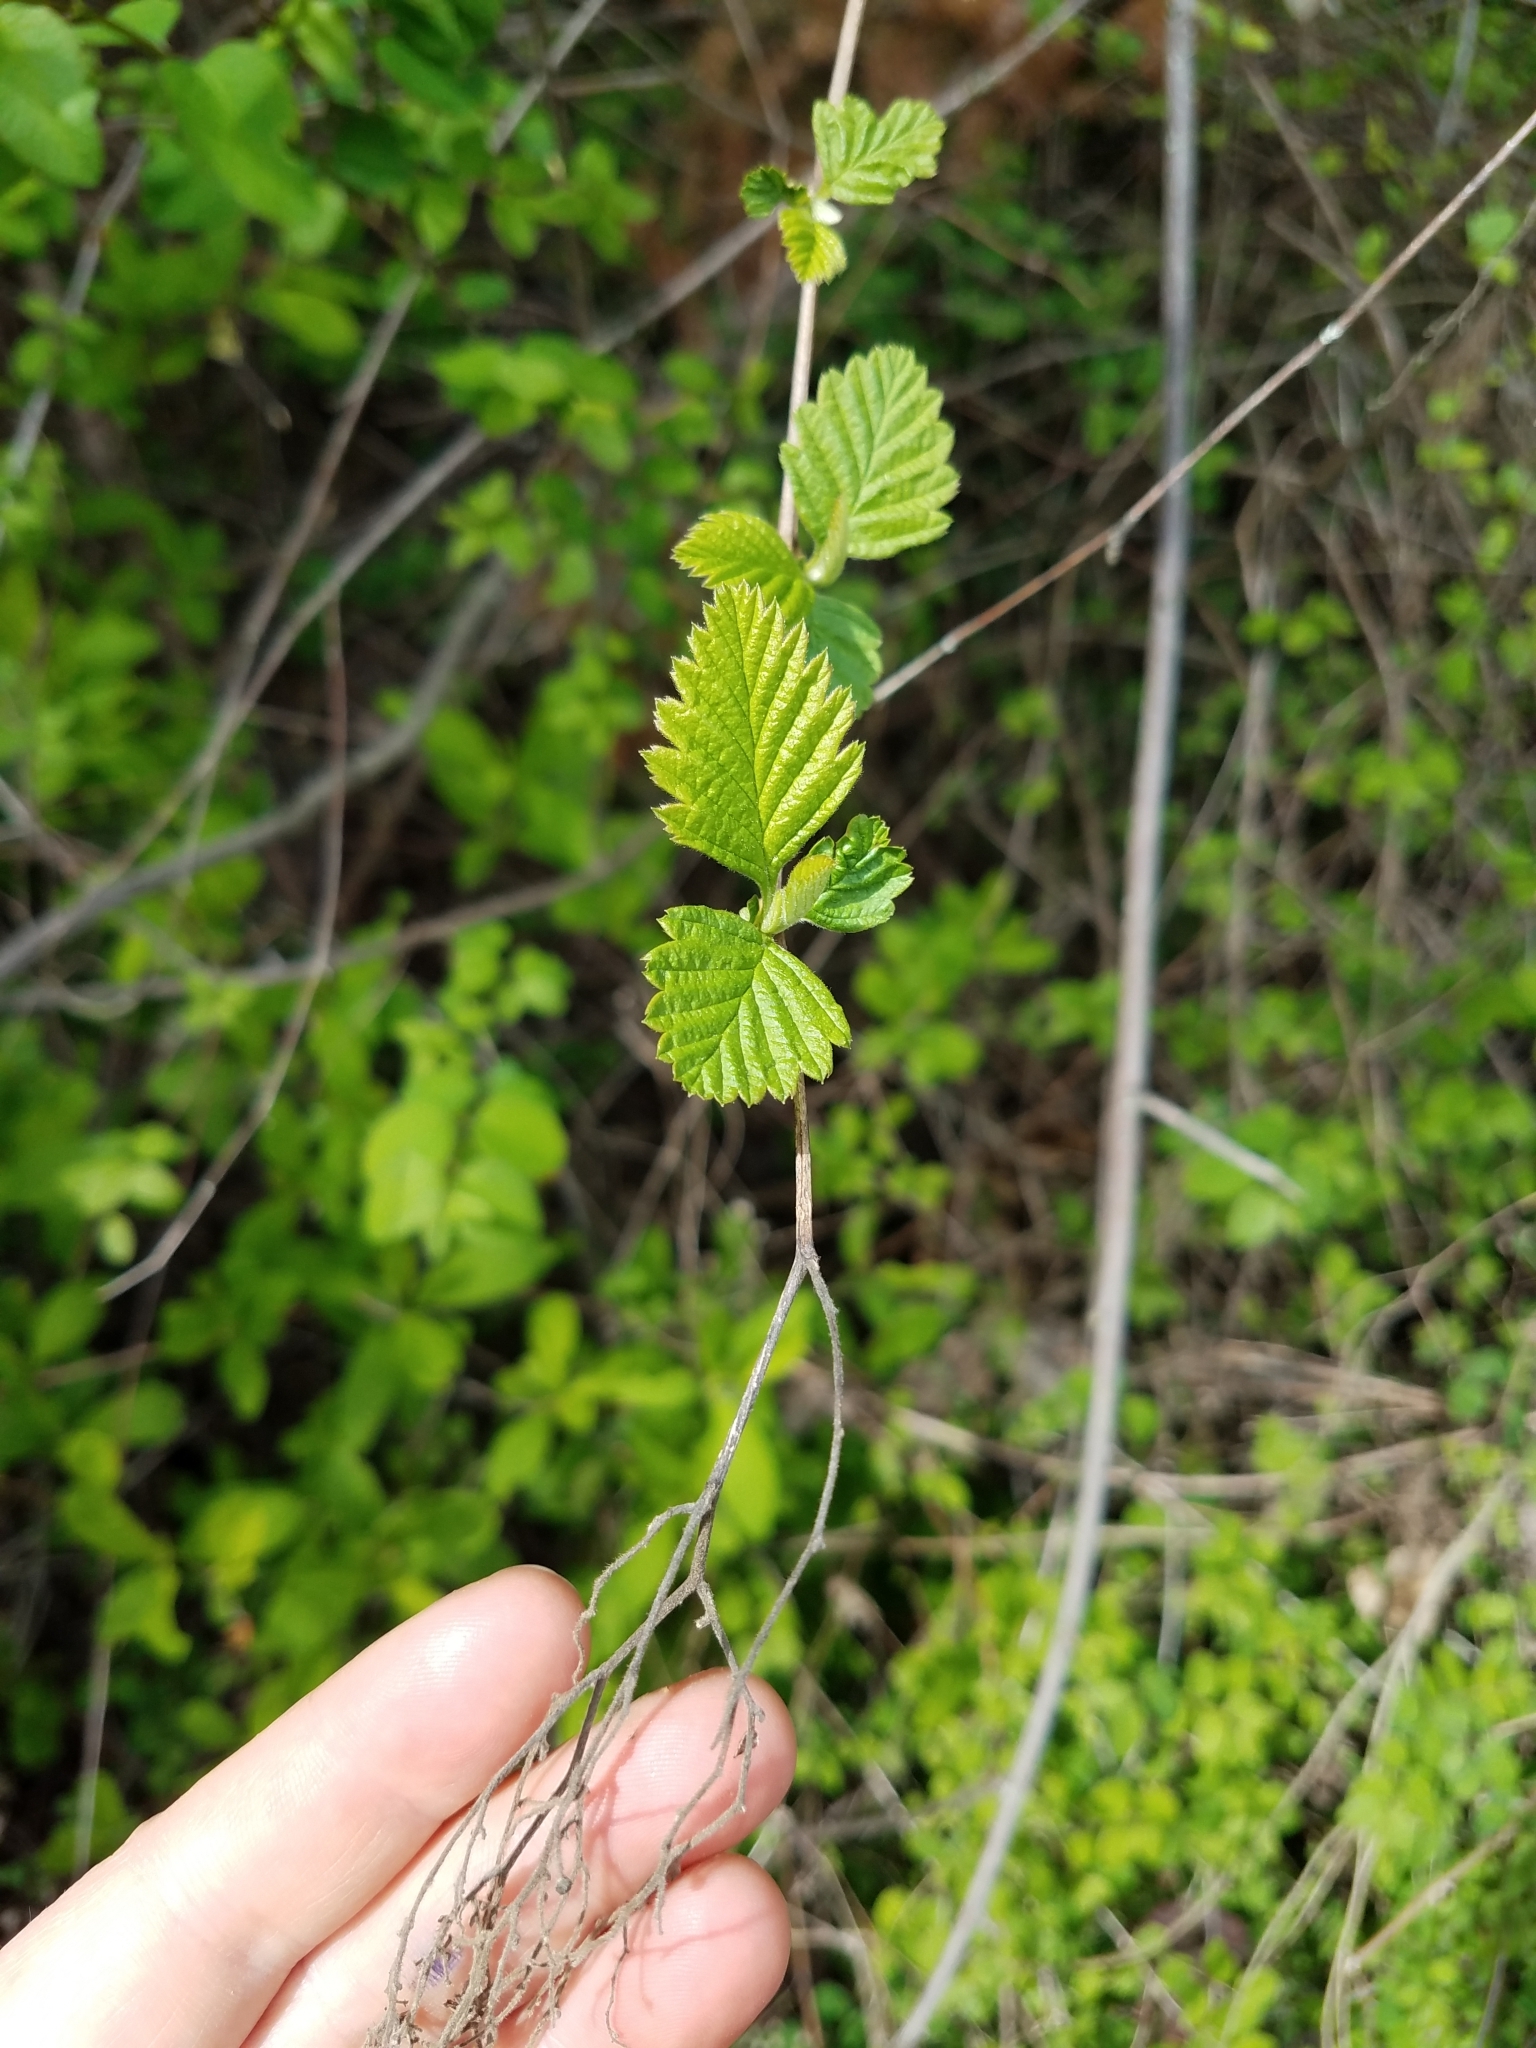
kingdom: Plantae
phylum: Tracheophyta
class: Magnoliopsida
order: Rosales
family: Rosaceae
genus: Holodiscus
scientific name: Holodiscus discolor
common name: Oceanspray
